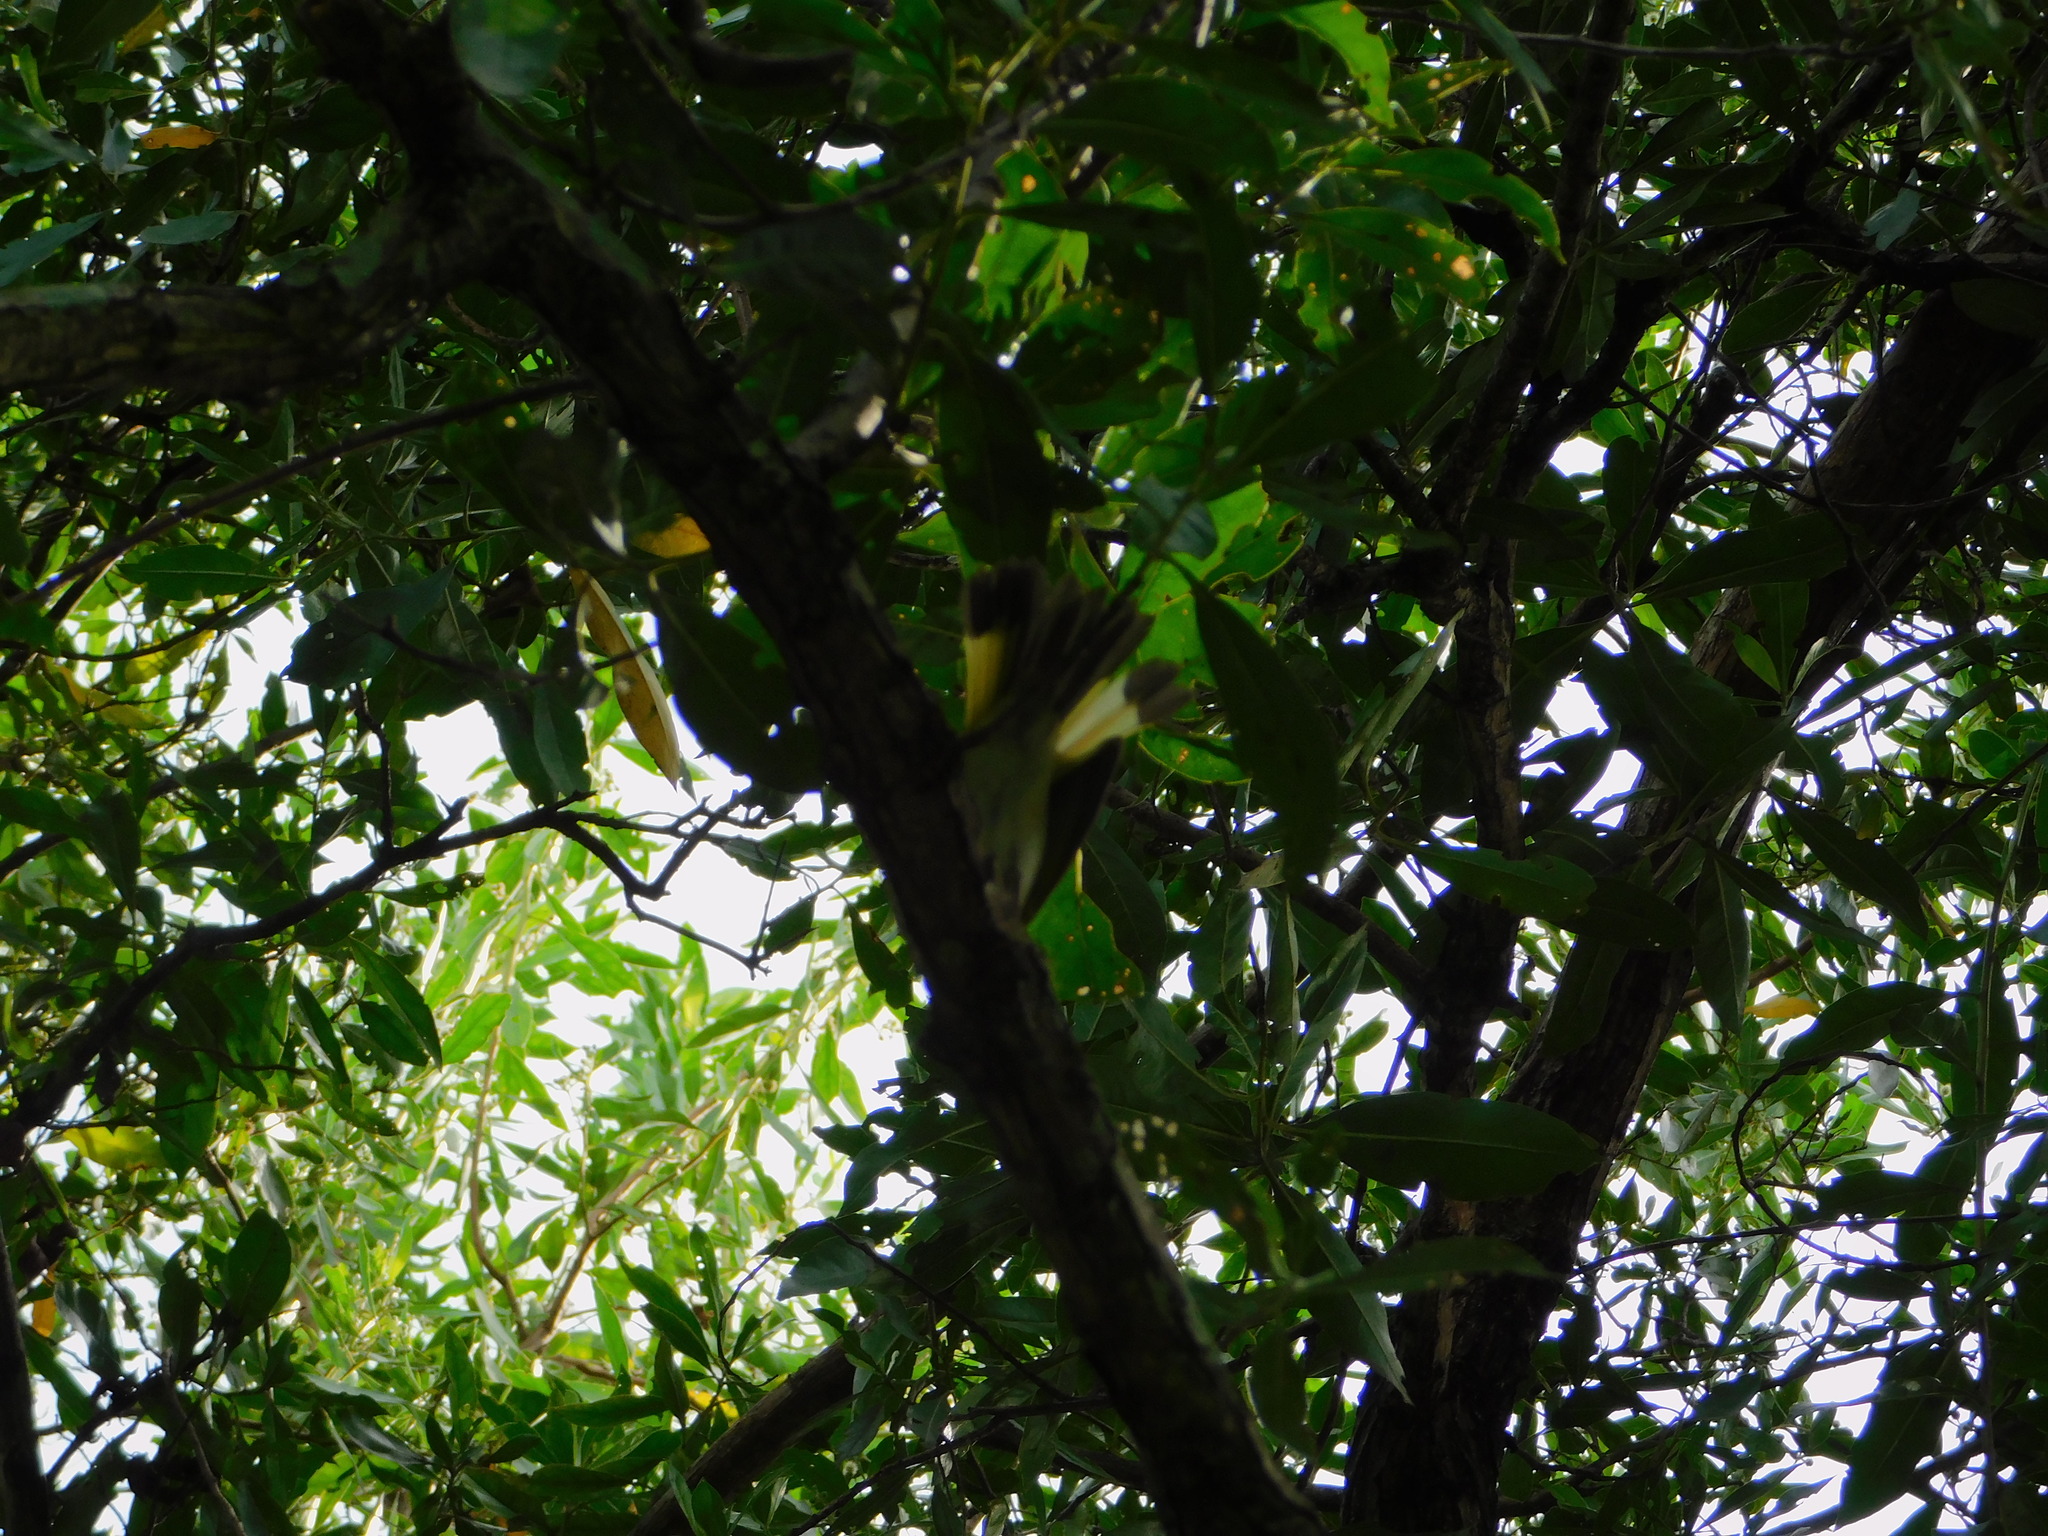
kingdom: Animalia
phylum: Chordata
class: Aves
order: Passeriformes
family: Parulidae
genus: Setophaga
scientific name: Setophaga ruticilla
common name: American redstart
